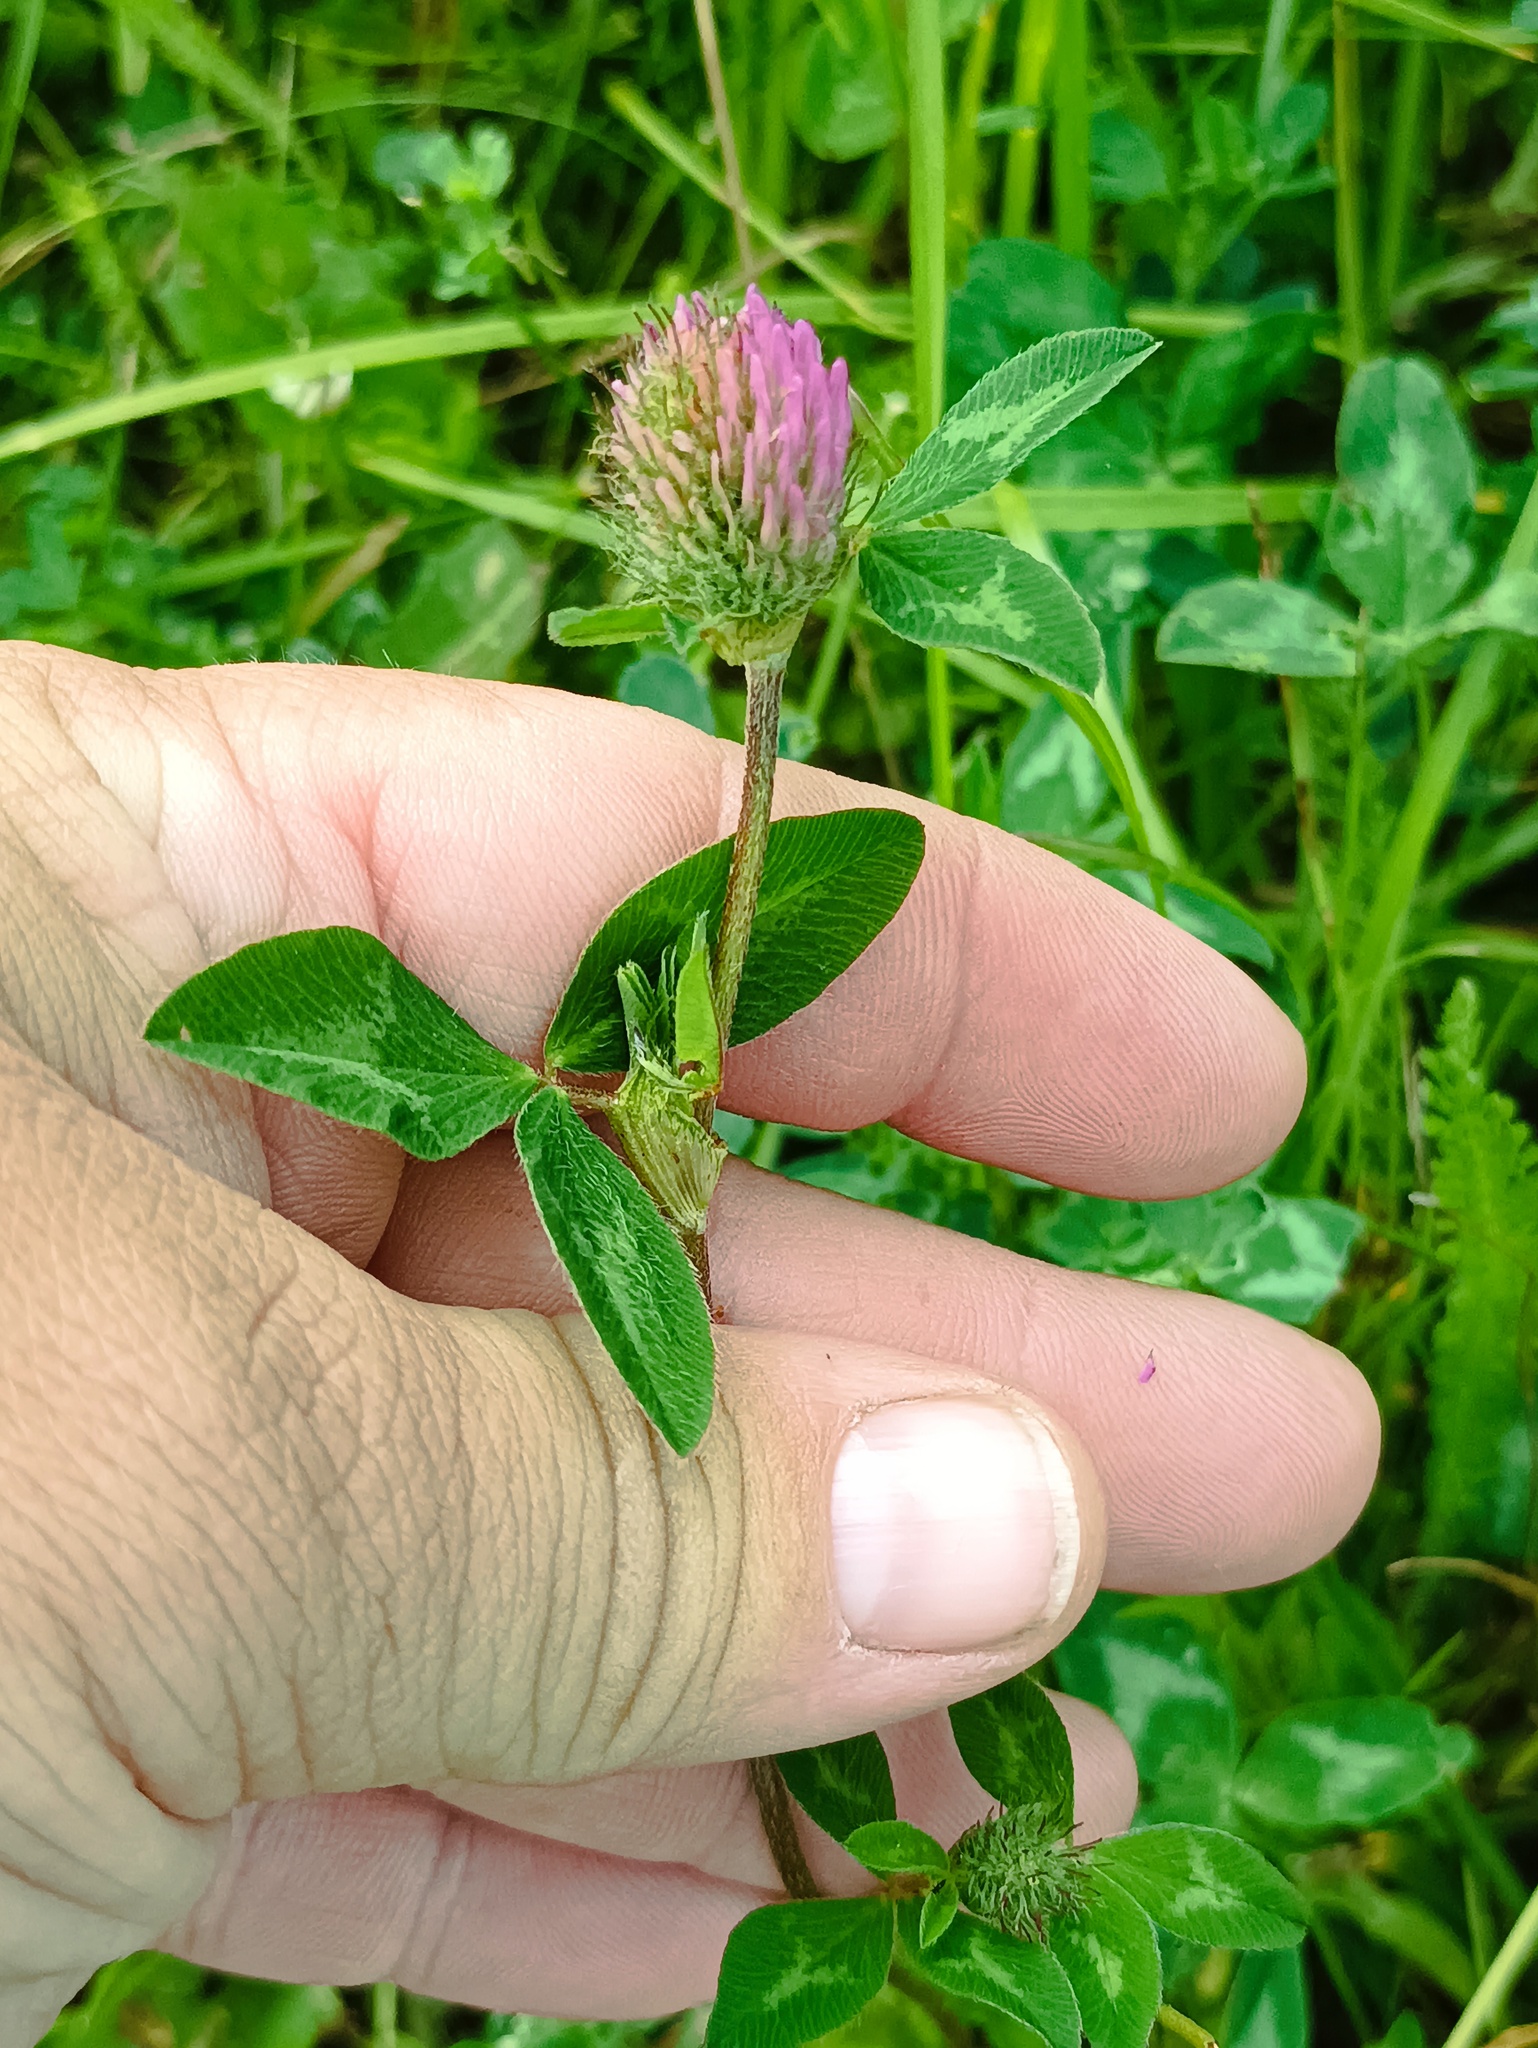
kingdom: Plantae
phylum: Tracheophyta
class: Magnoliopsida
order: Fabales
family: Fabaceae
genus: Trifolium
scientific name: Trifolium pratense
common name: Red clover
